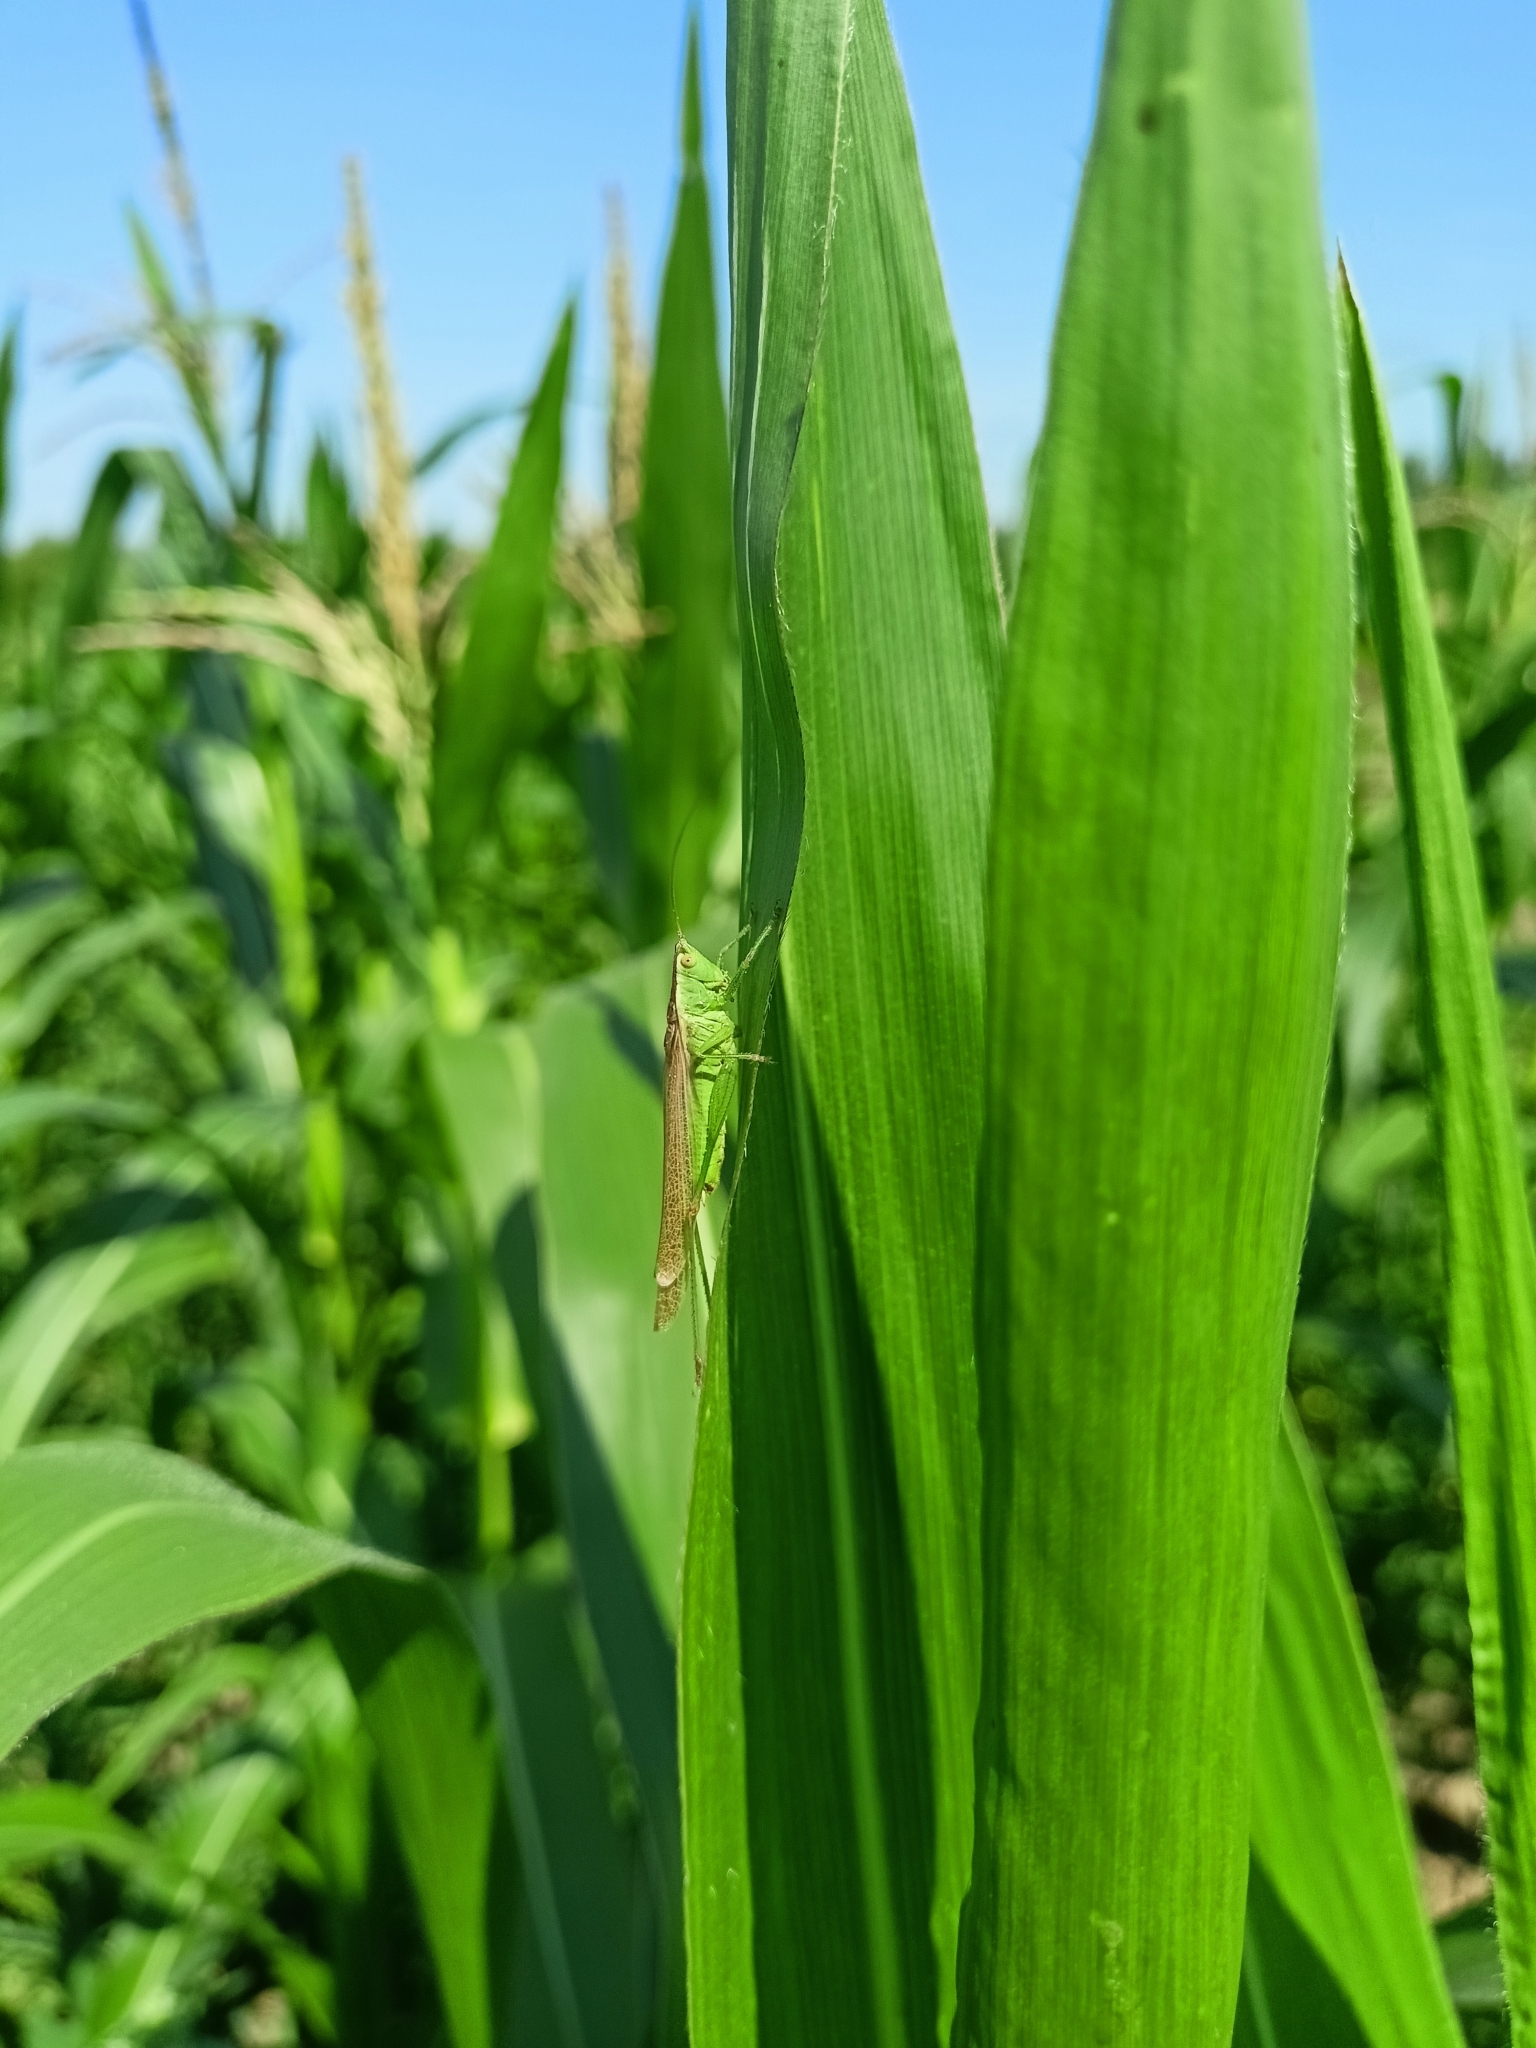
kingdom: Animalia
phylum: Arthropoda
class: Insecta
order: Orthoptera
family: Tettigoniidae
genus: Conocephalus
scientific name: Conocephalus fuscus
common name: Long-winged conehead
